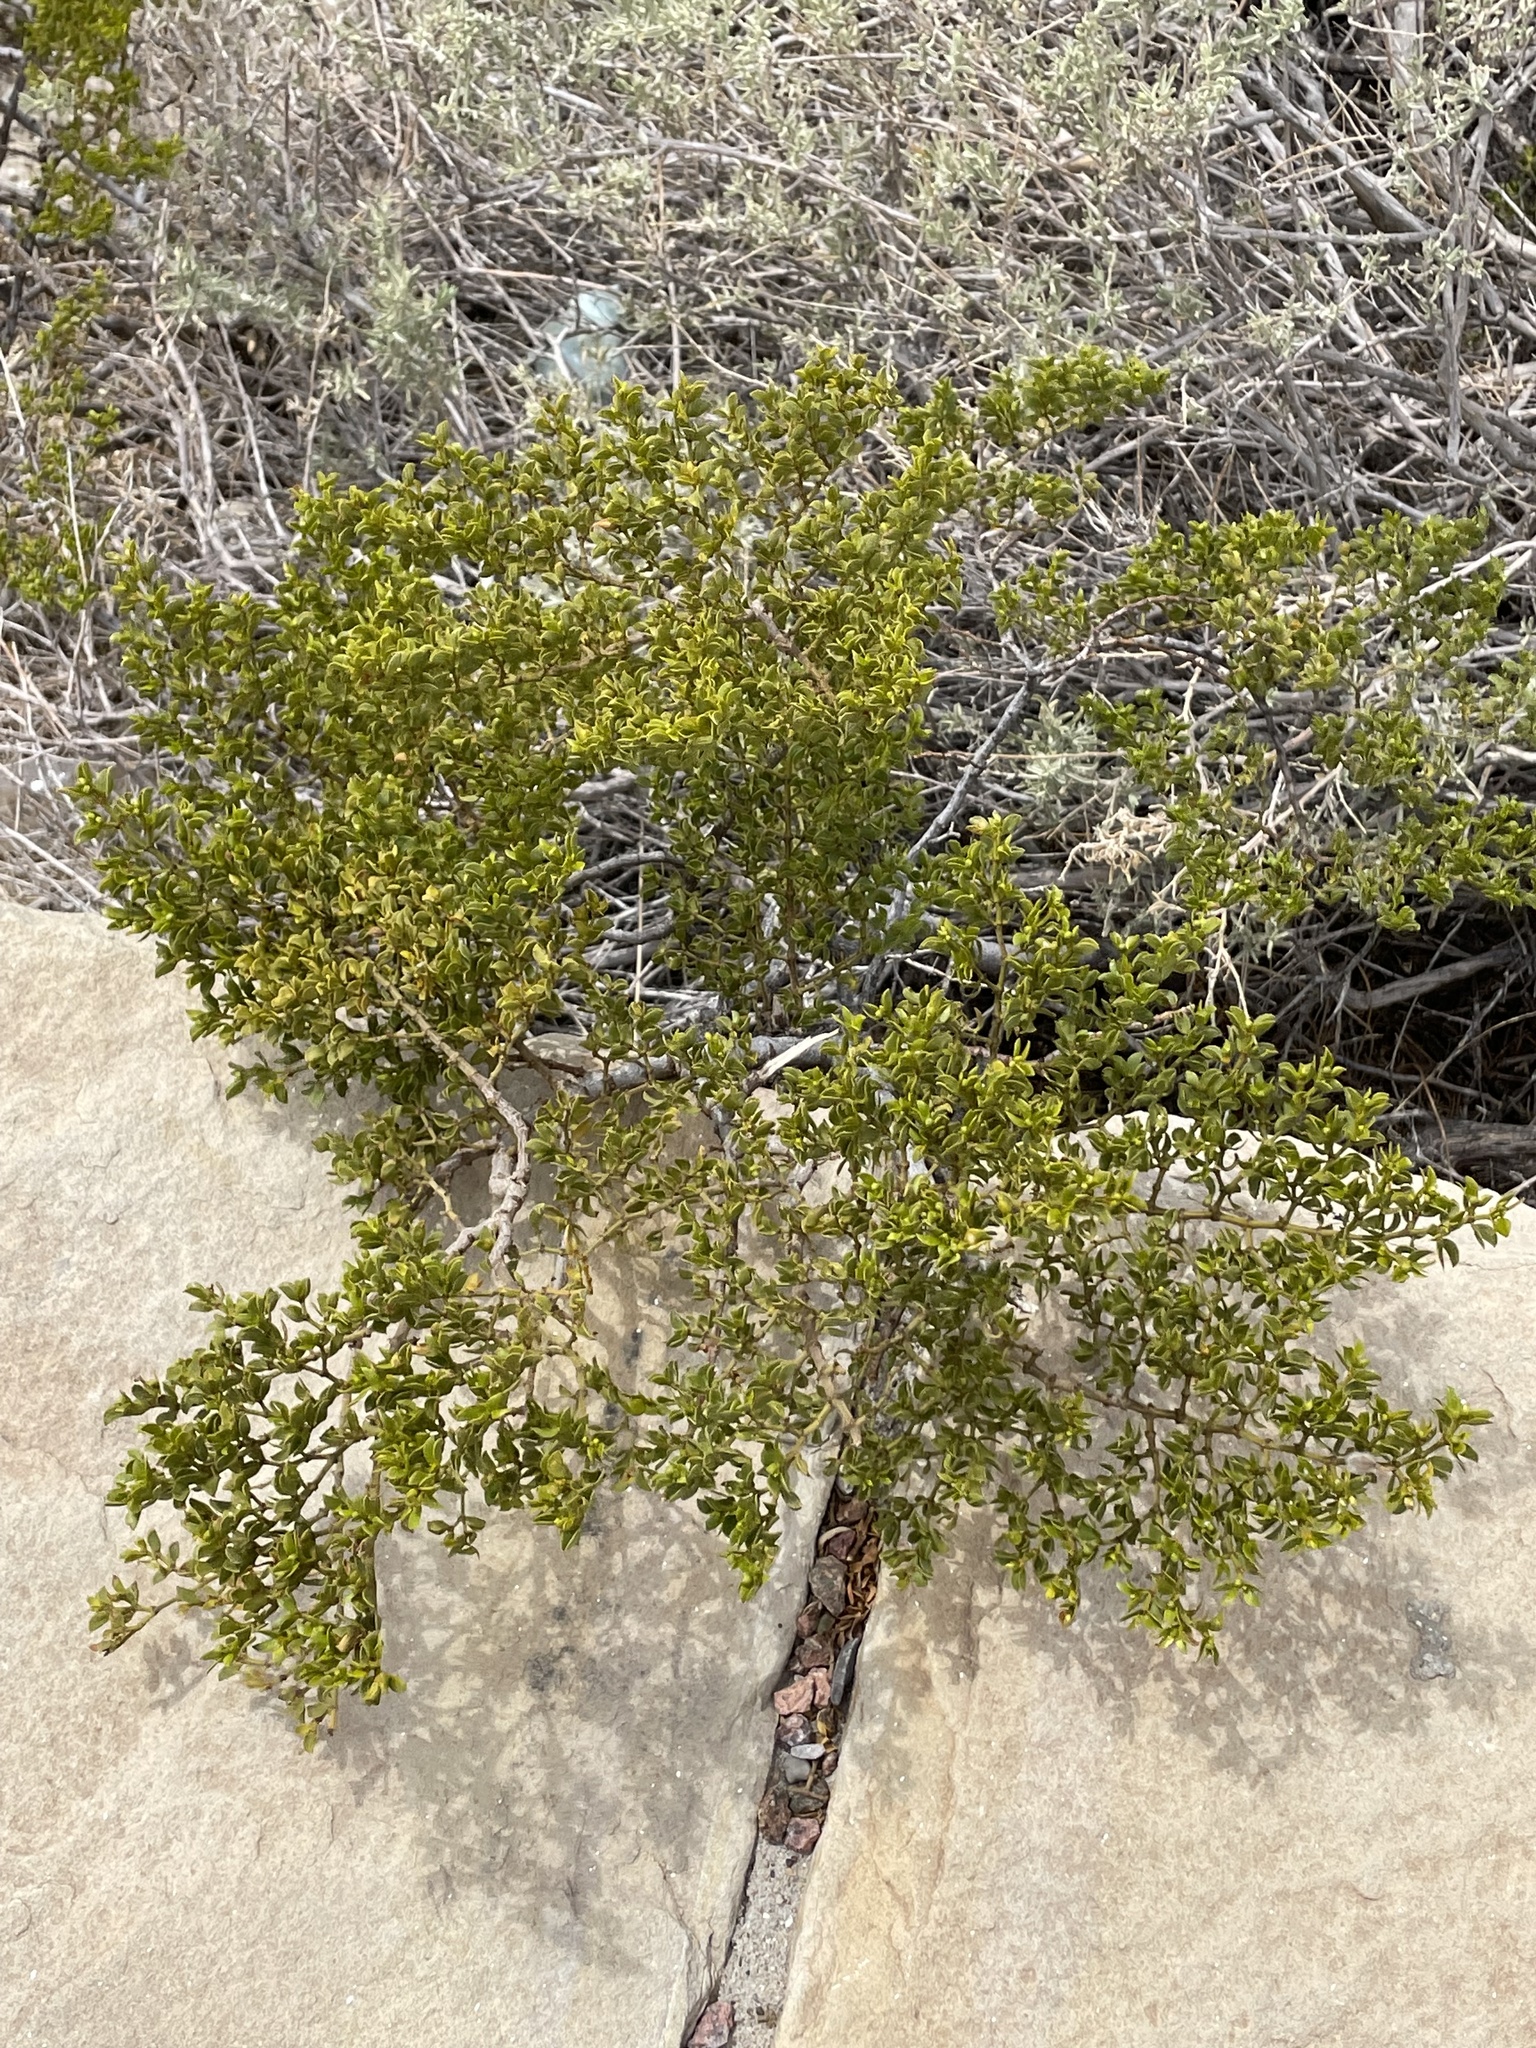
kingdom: Plantae
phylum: Tracheophyta
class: Magnoliopsida
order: Zygophyllales
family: Zygophyllaceae
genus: Larrea
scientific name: Larrea tridentata
